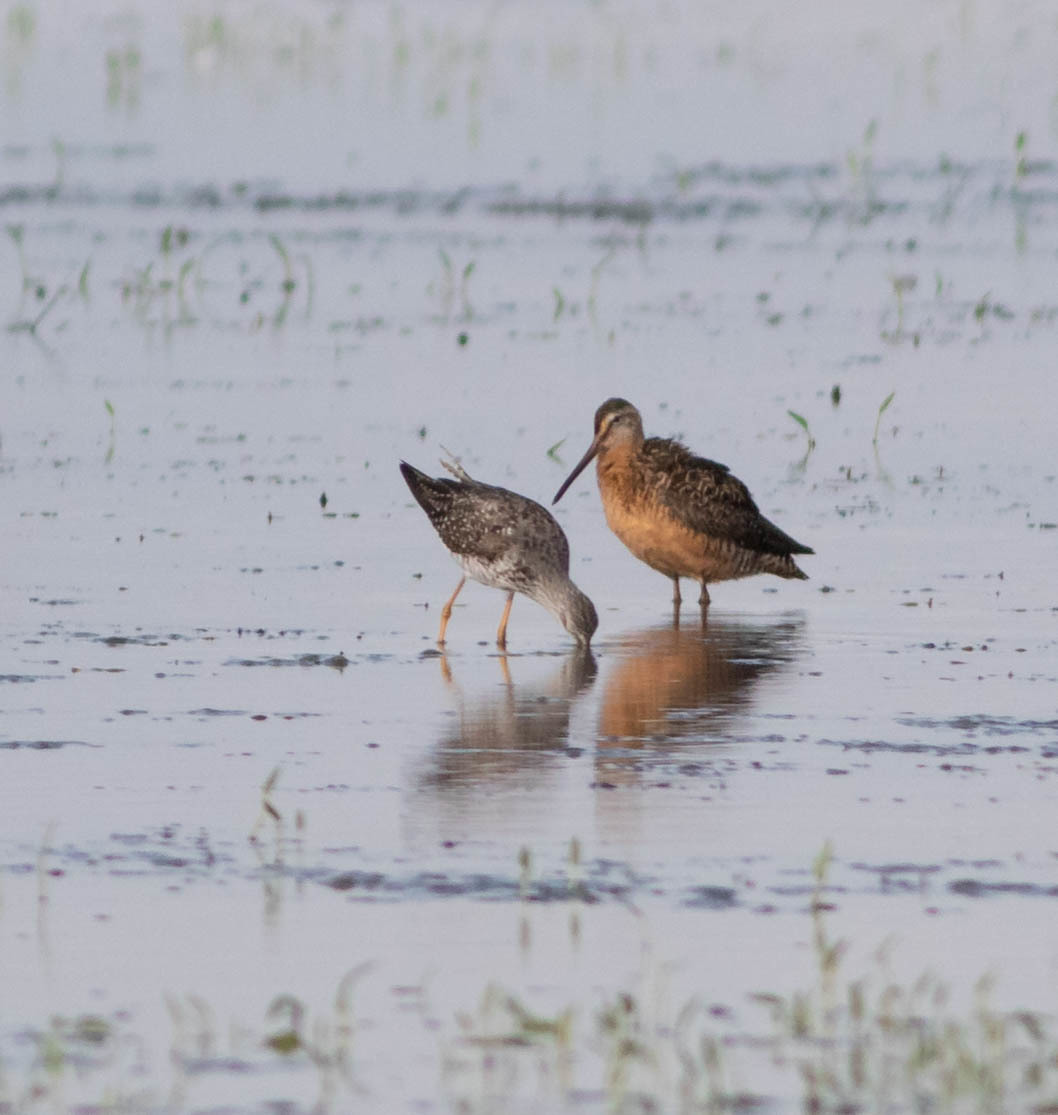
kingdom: Animalia
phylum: Chordata
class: Aves
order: Charadriiformes
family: Scolopacidae
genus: Limnodromus
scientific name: Limnodromus scolopaceus
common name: Long-billed dowitcher
